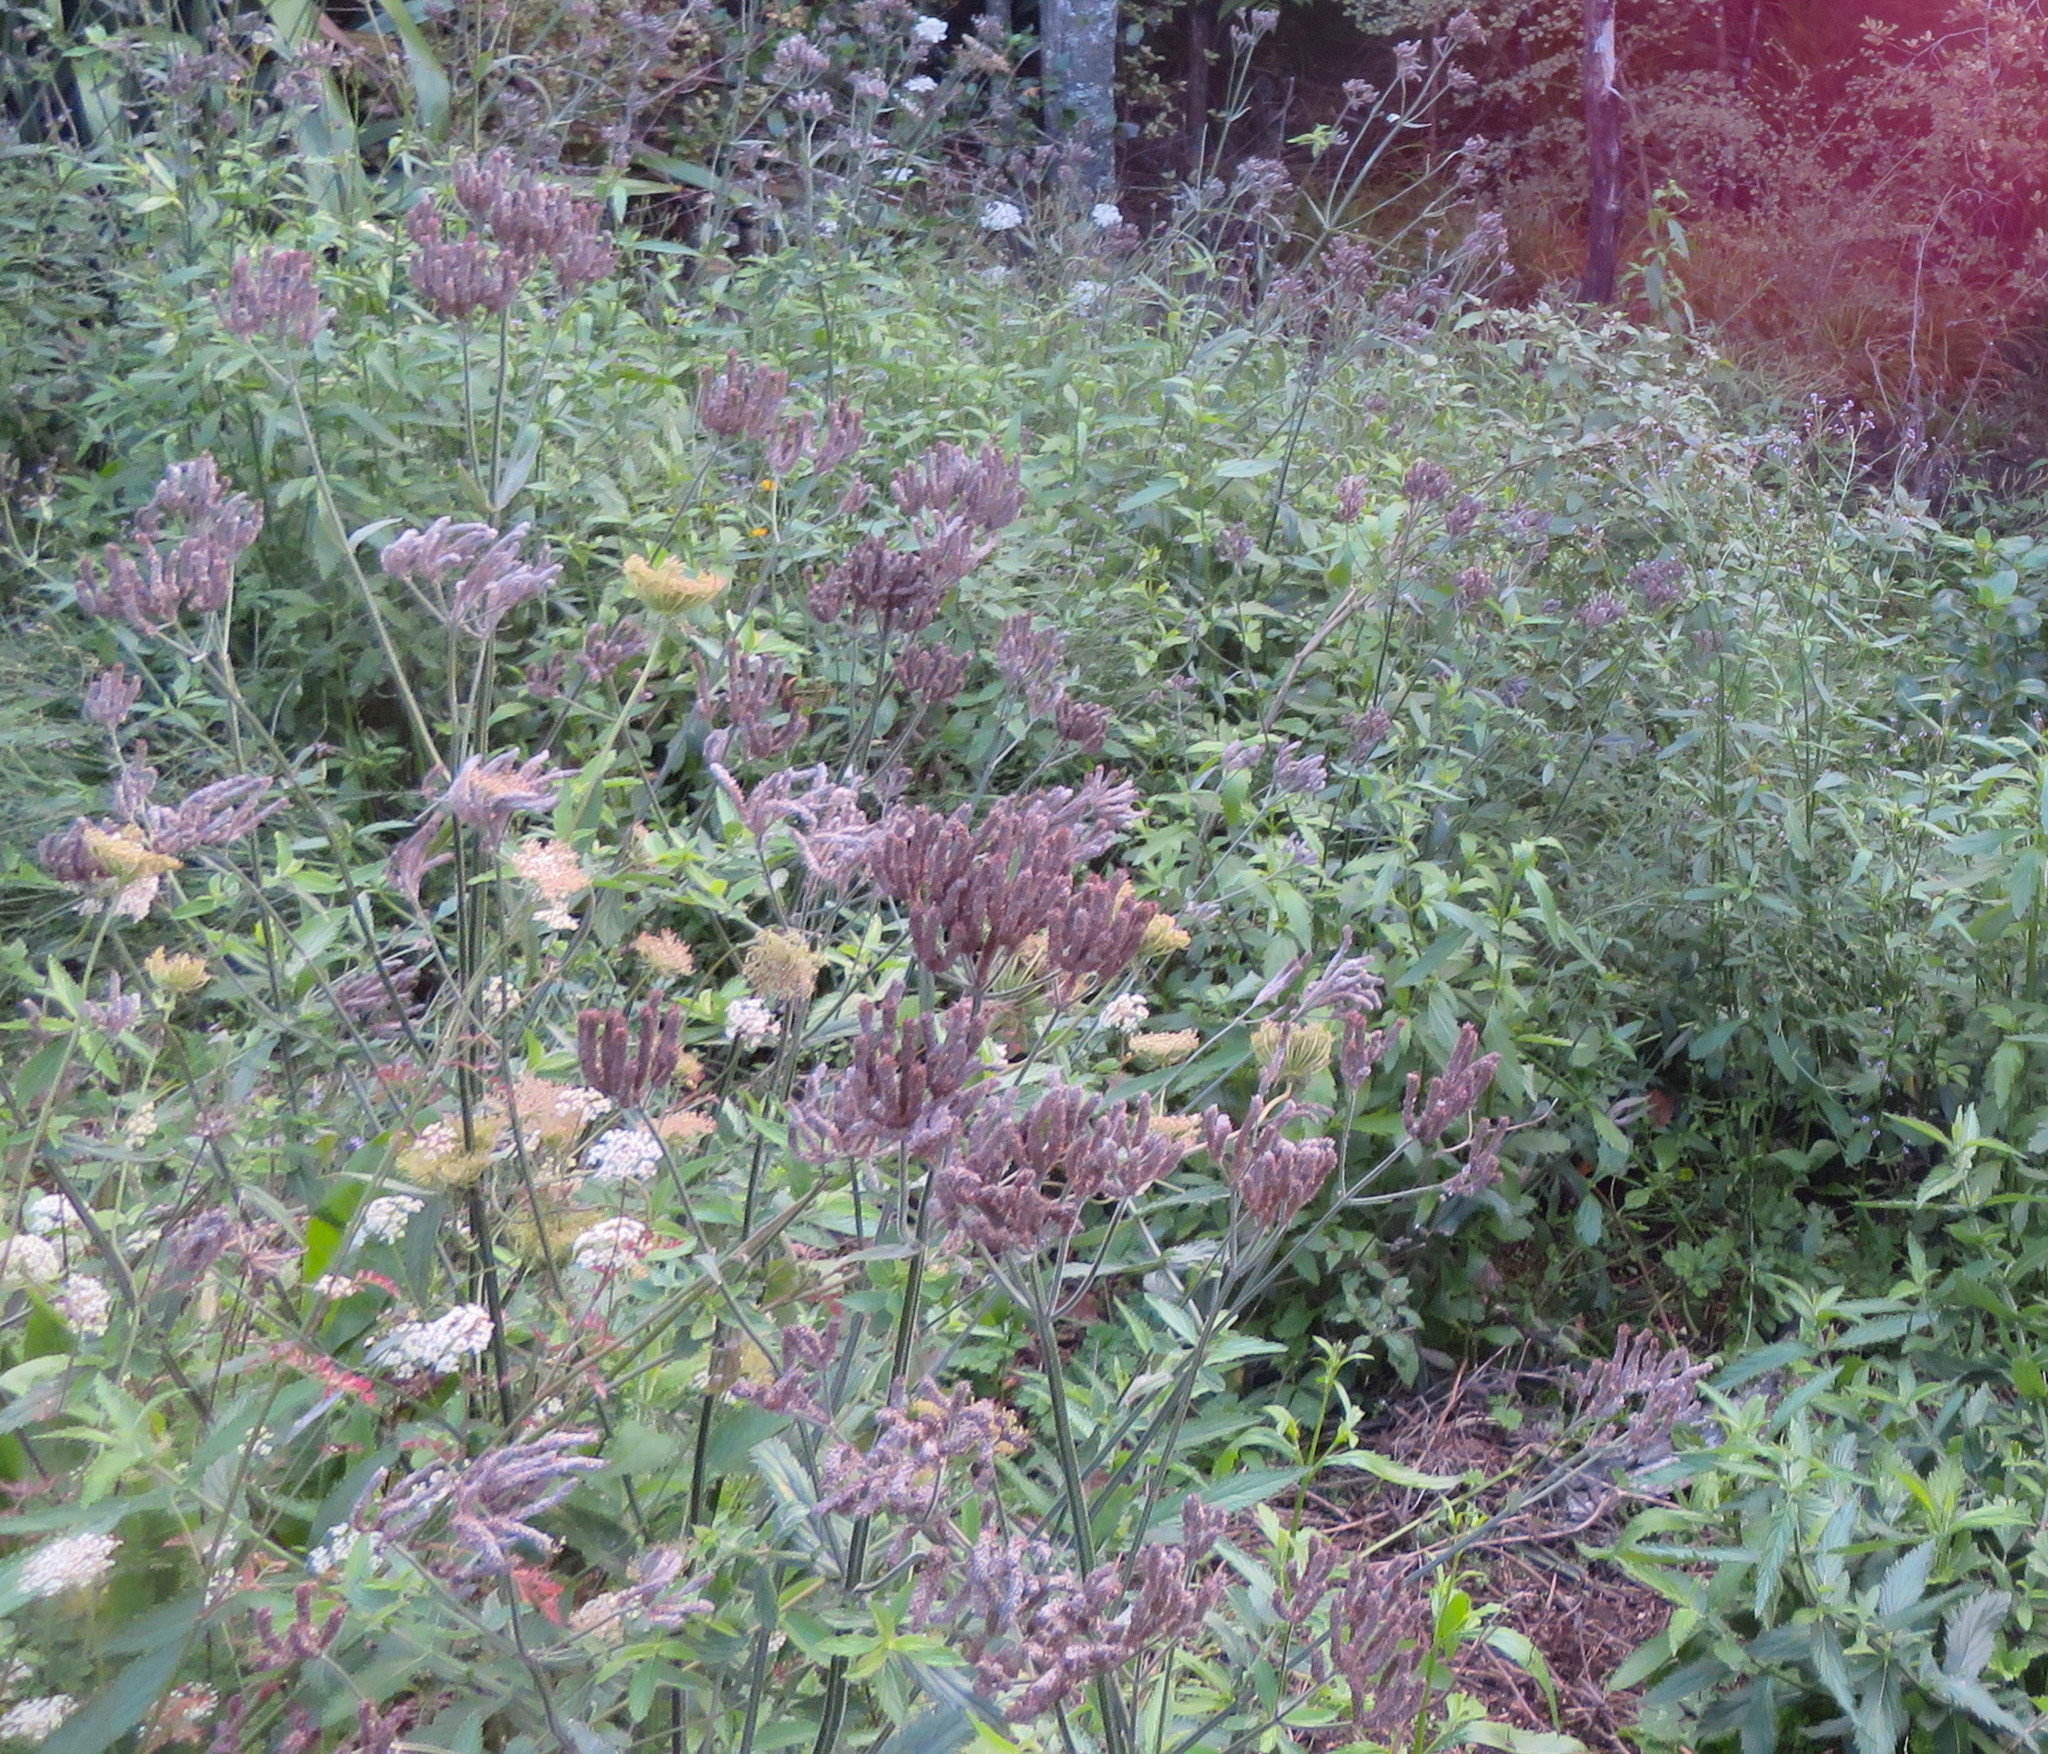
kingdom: Plantae
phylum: Tracheophyta
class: Magnoliopsida
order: Lamiales
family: Verbenaceae
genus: Verbena
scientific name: Verbena incompta
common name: Purpletop vervain
